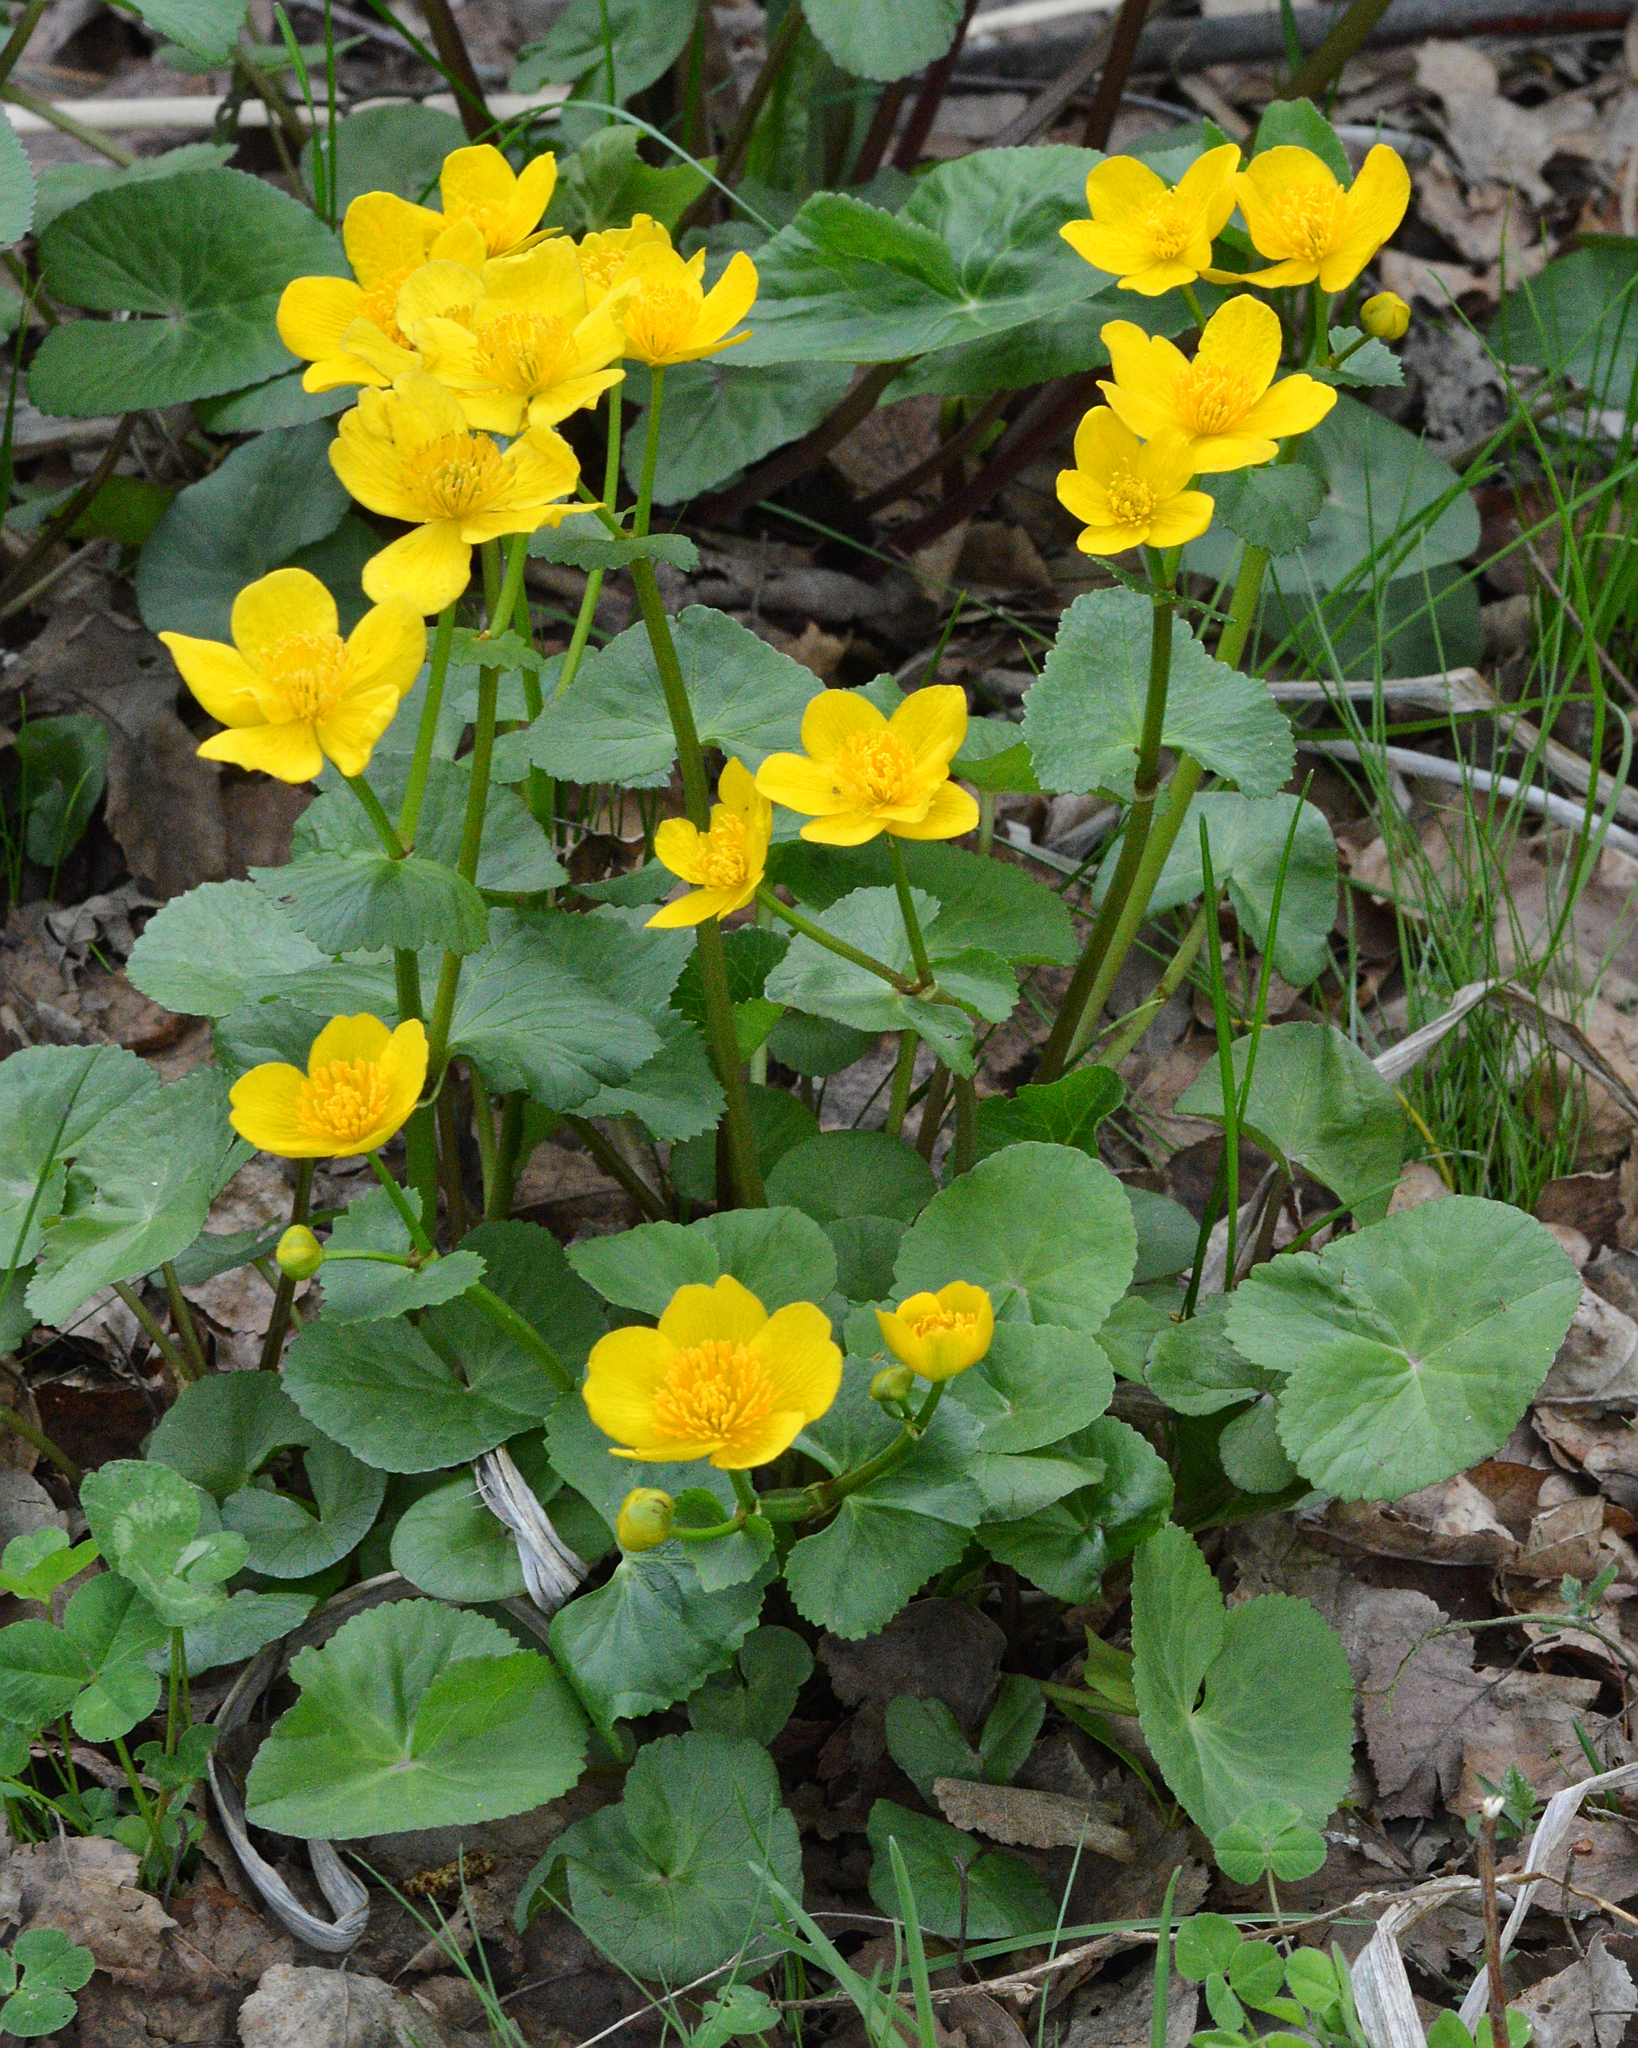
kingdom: Plantae
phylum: Tracheophyta
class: Magnoliopsida
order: Ranunculales
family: Ranunculaceae
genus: Caltha
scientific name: Caltha palustris
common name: Marsh marigold
